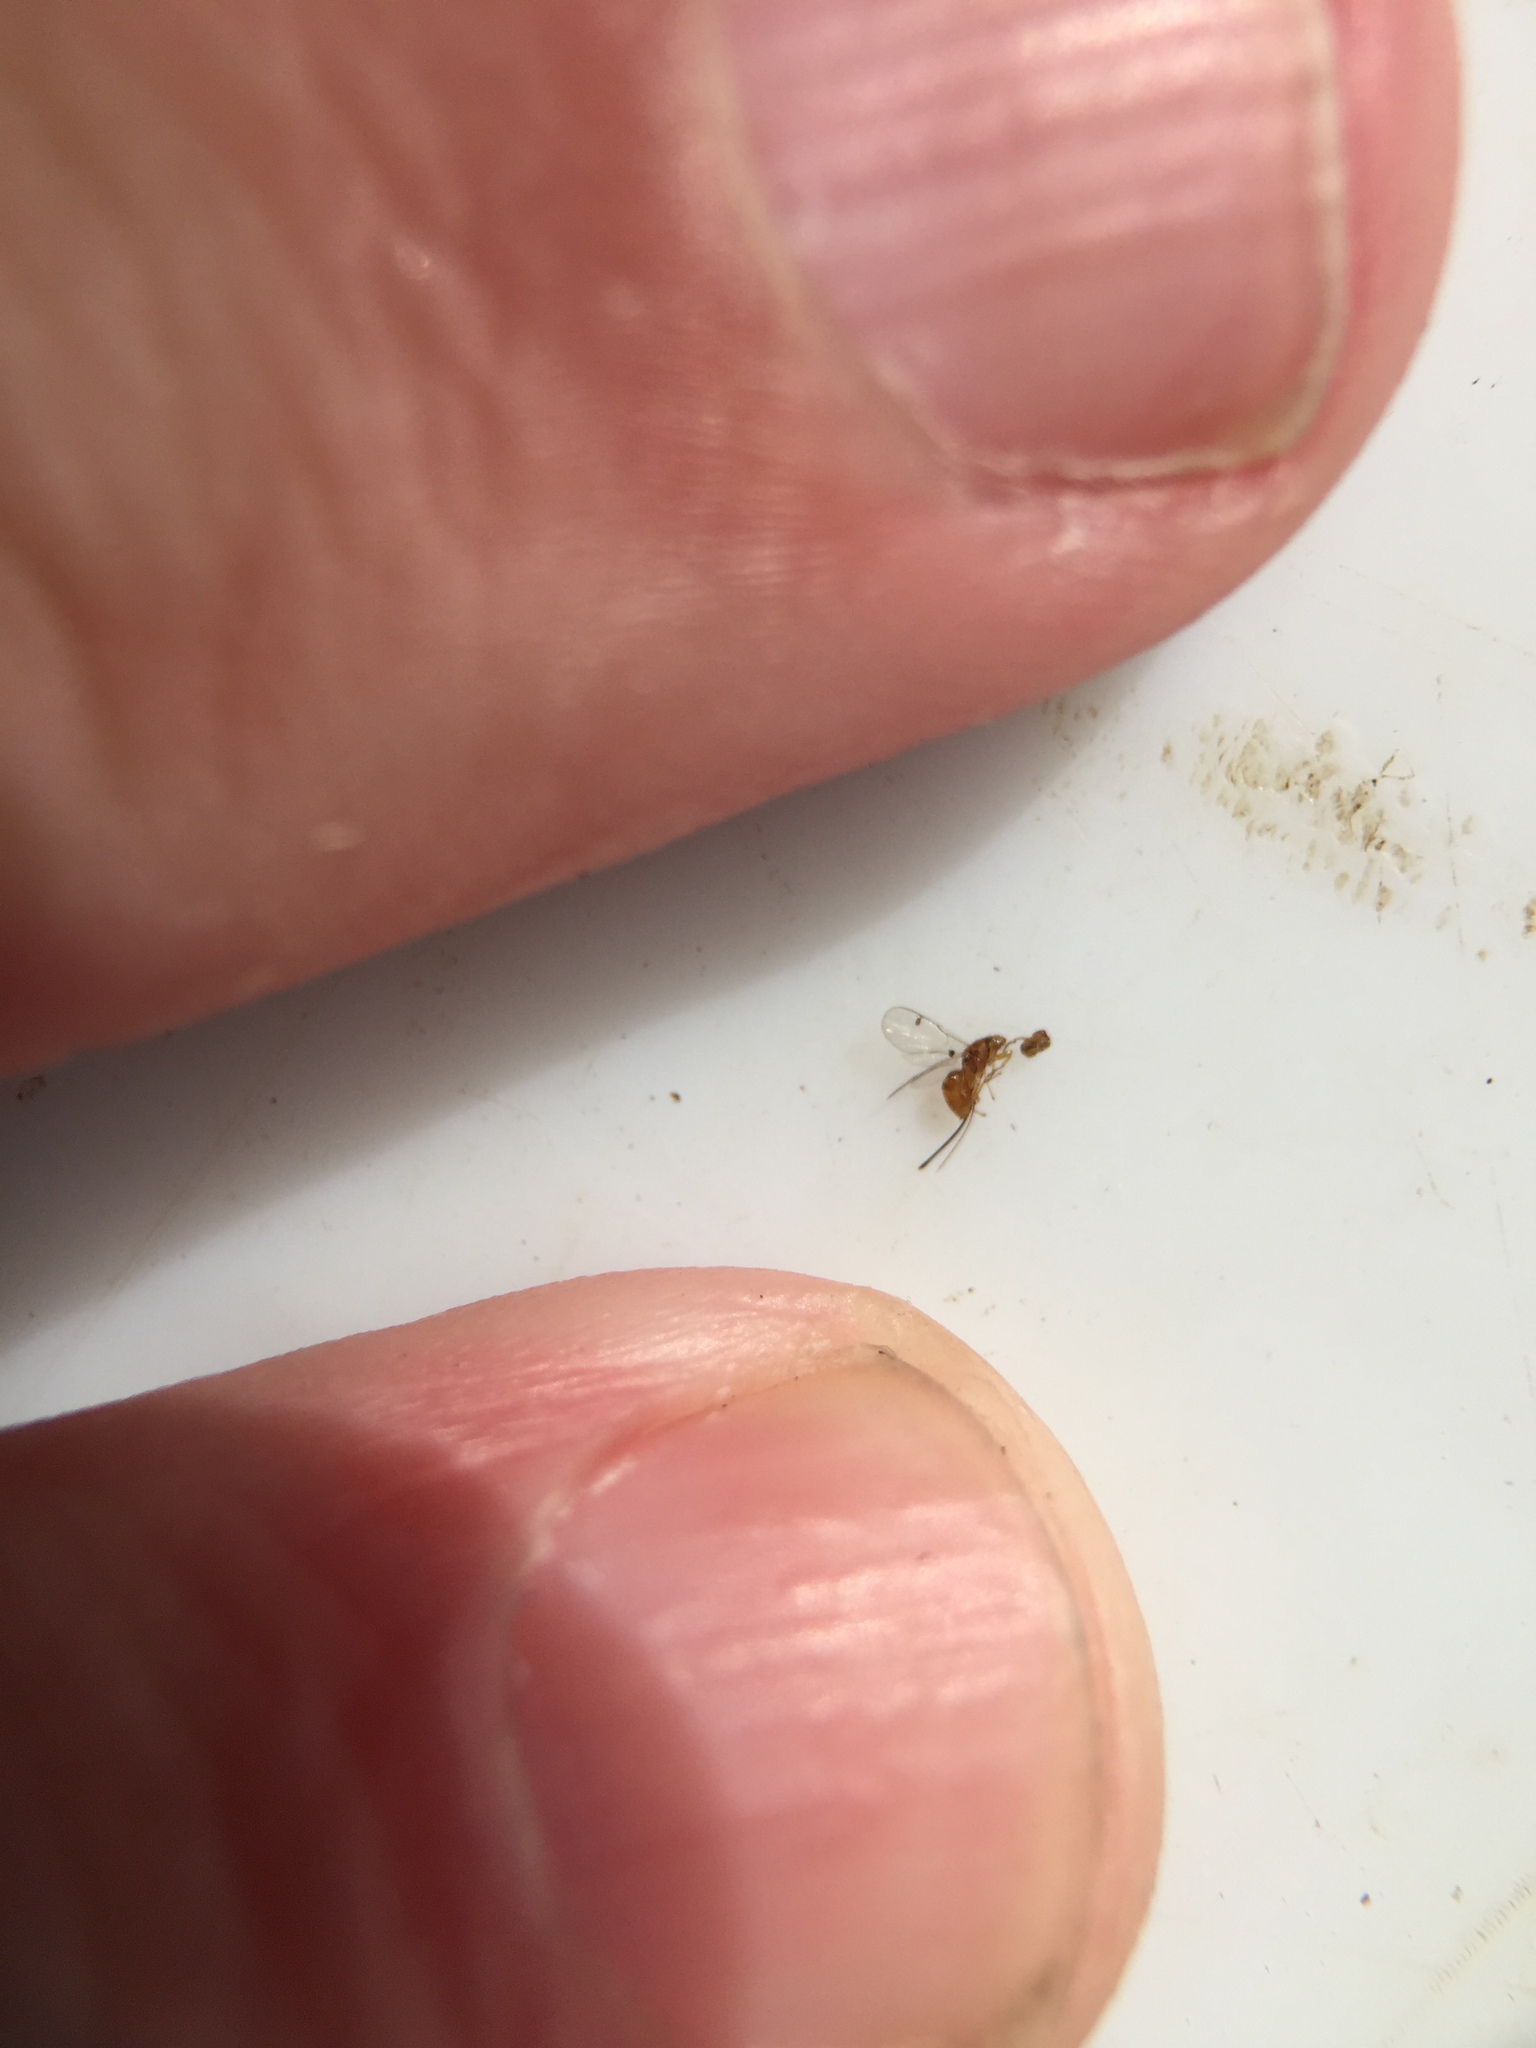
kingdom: Animalia
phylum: Arthropoda
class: Insecta
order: Hymenoptera
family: Torymidae
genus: Megastigmus
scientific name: Megastigmus
